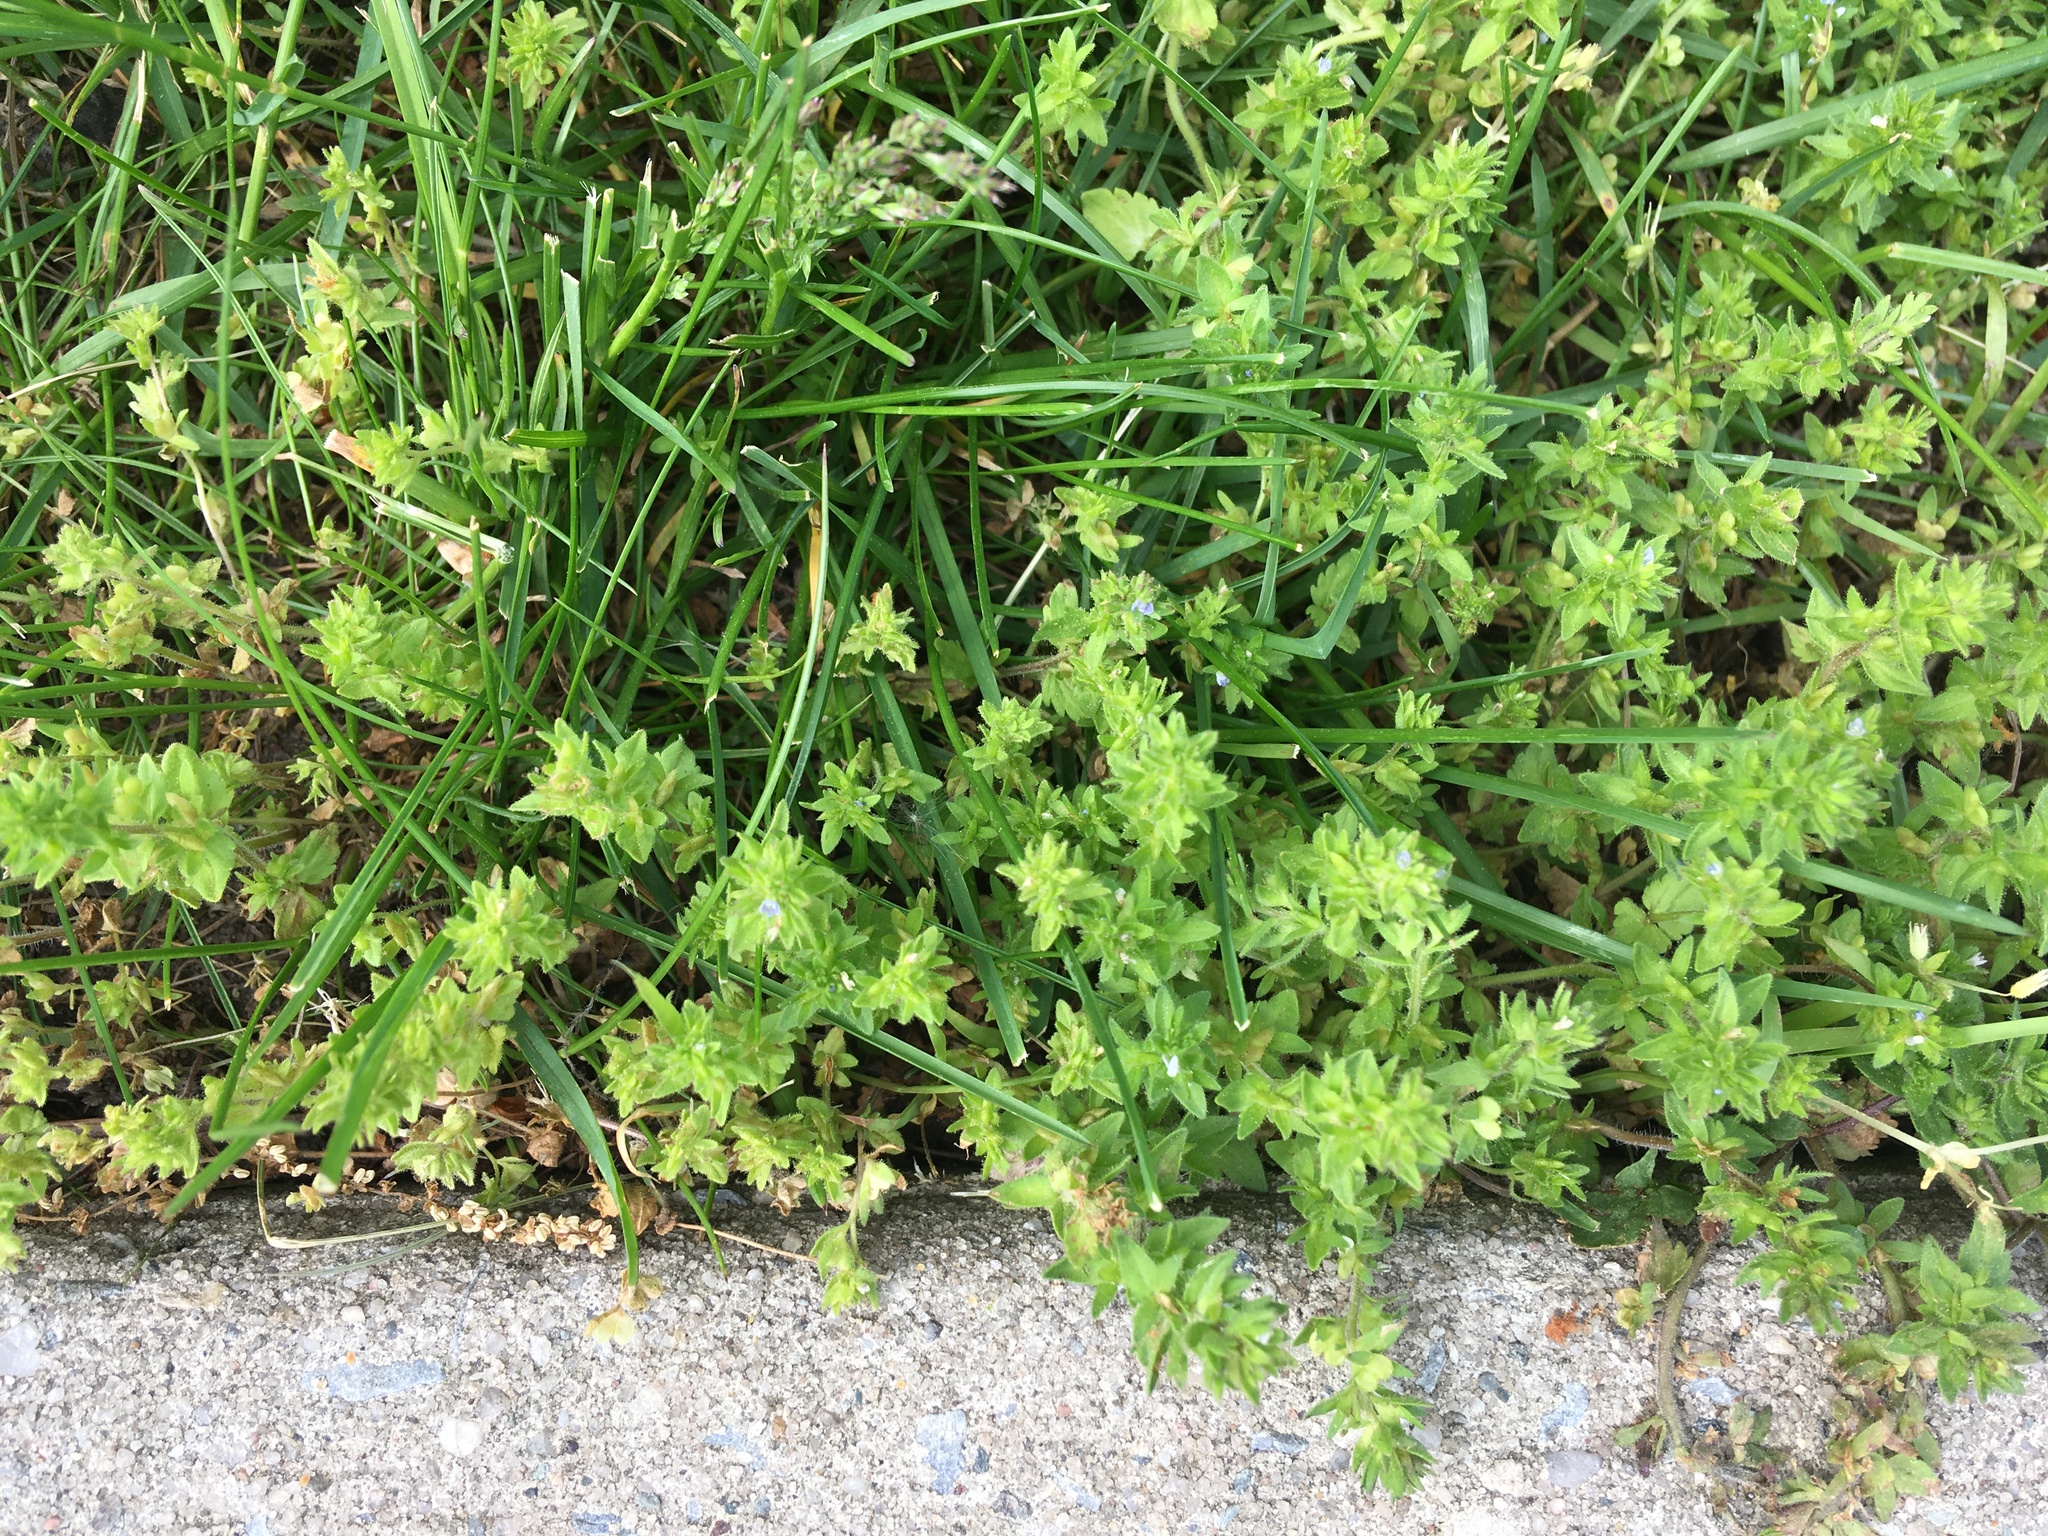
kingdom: Plantae
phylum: Tracheophyta
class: Magnoliopsida
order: Lamiales
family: Plantaginaceae
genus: Veronica
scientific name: Veronica arvensis
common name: Corn speedwell
